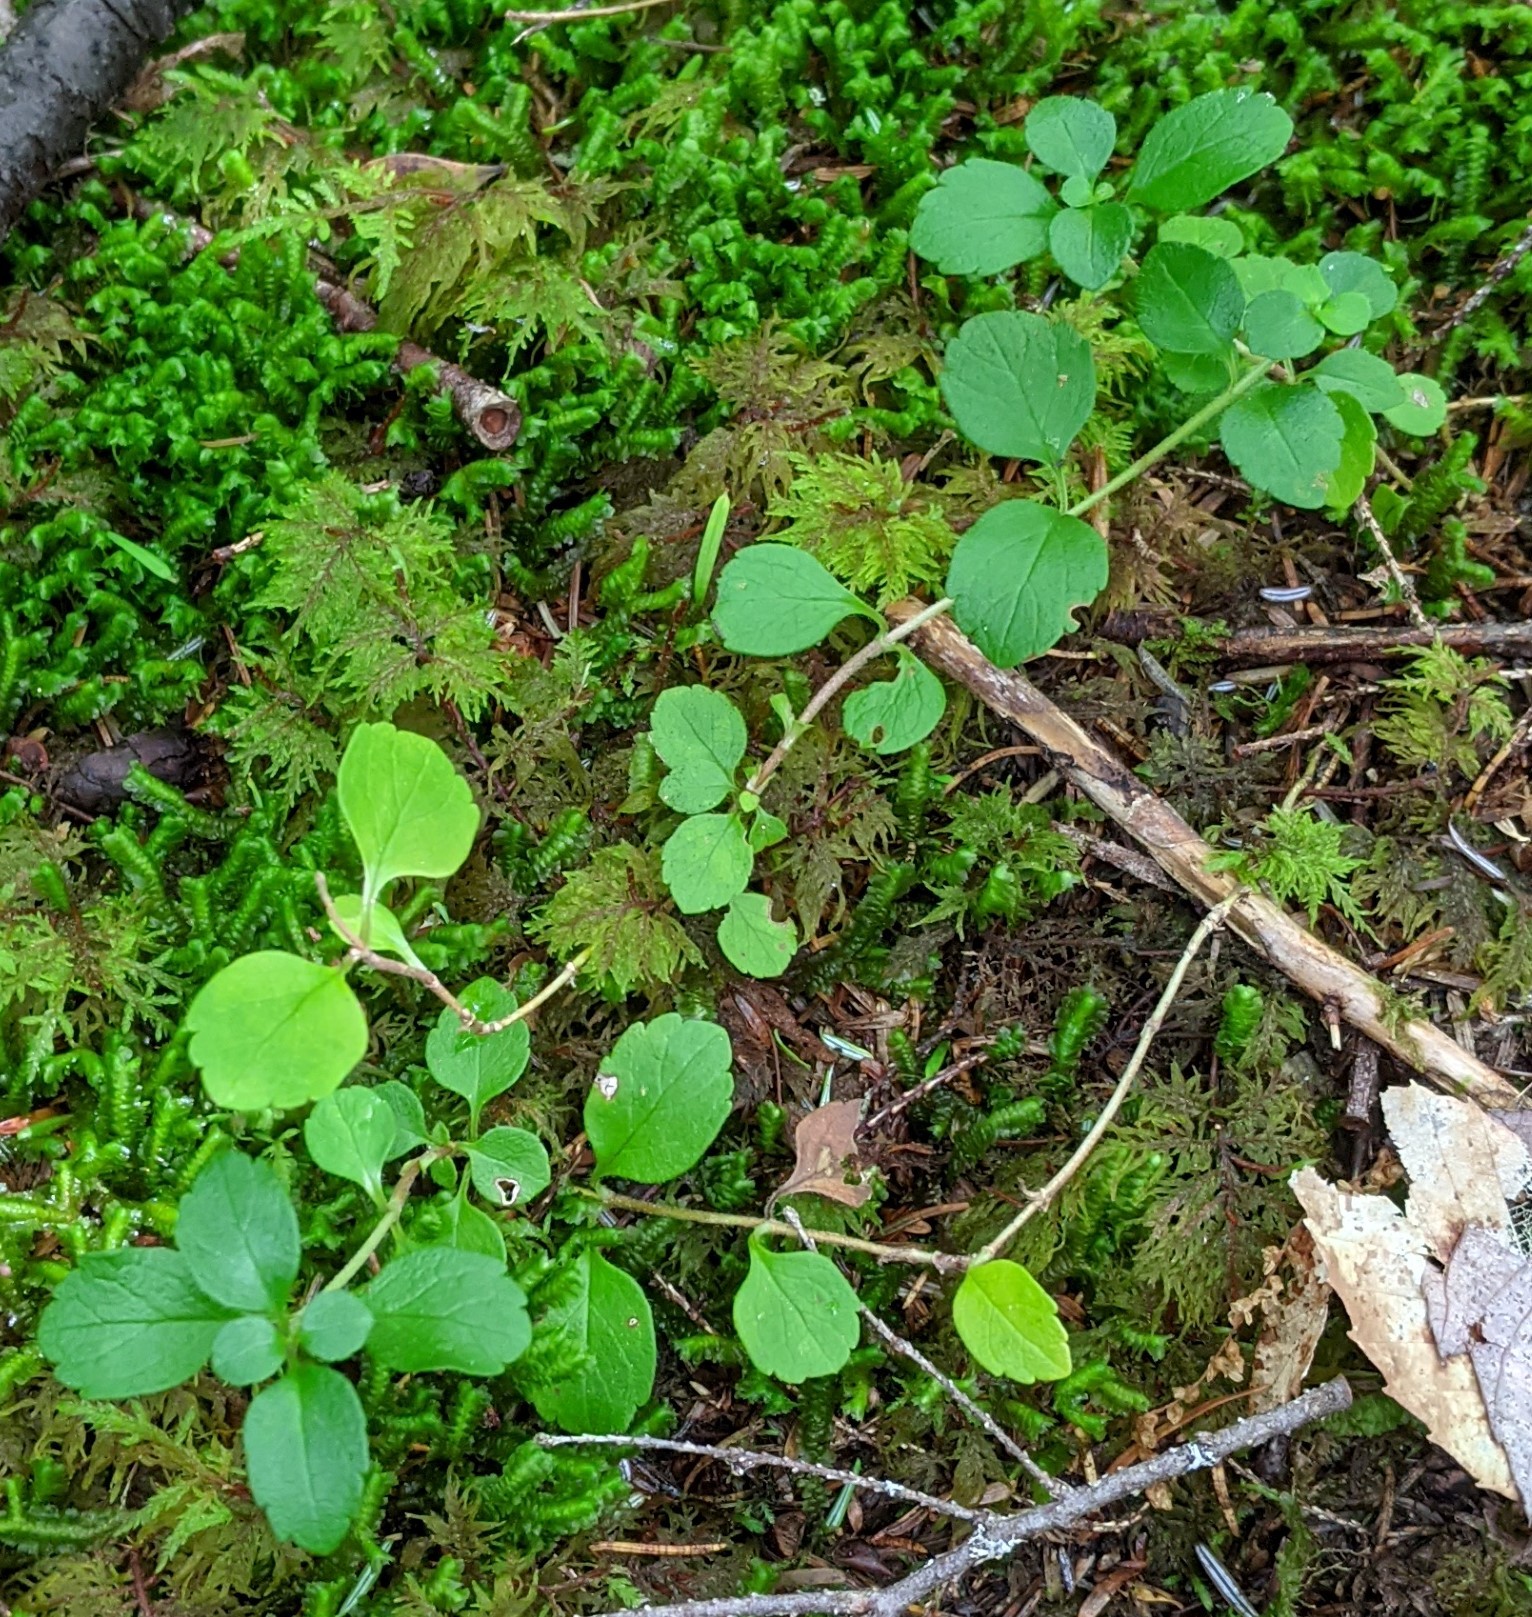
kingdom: Plantae
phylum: Tracheophyta
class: Magnoliopsida
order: Dipsacales
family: Caprifoliaceae
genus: Linnaea
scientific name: Linnaea borealis
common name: Twinflower
